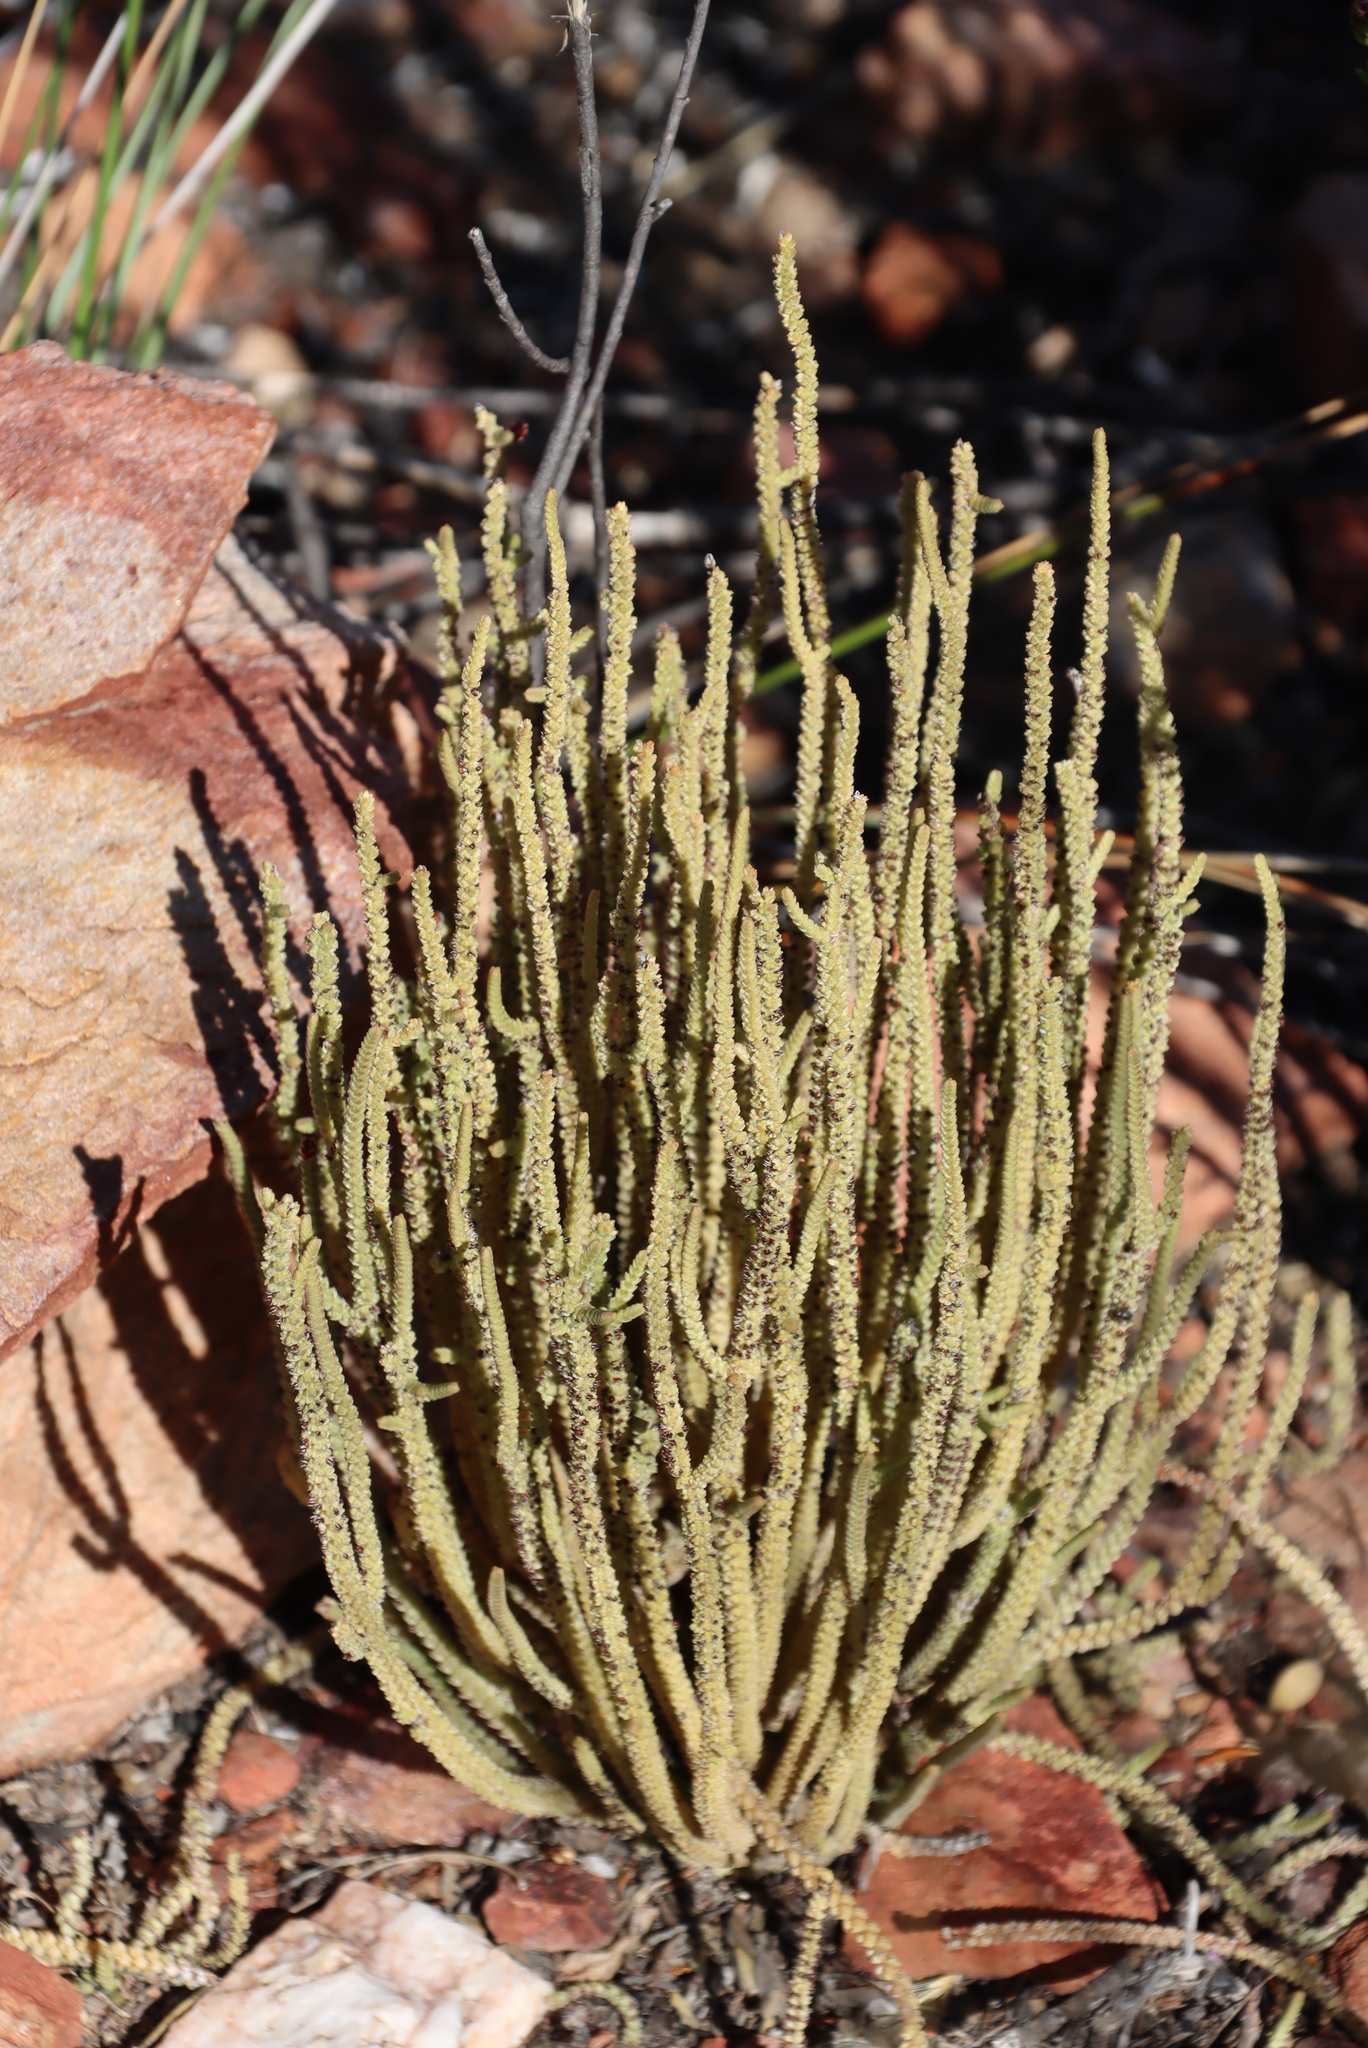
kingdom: Plantae
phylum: Tracheophyta
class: Magnoliopsida
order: Saxifragales
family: Crassulaceae
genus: Crassula
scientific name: Crassula muscosa
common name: Toy-cypress
